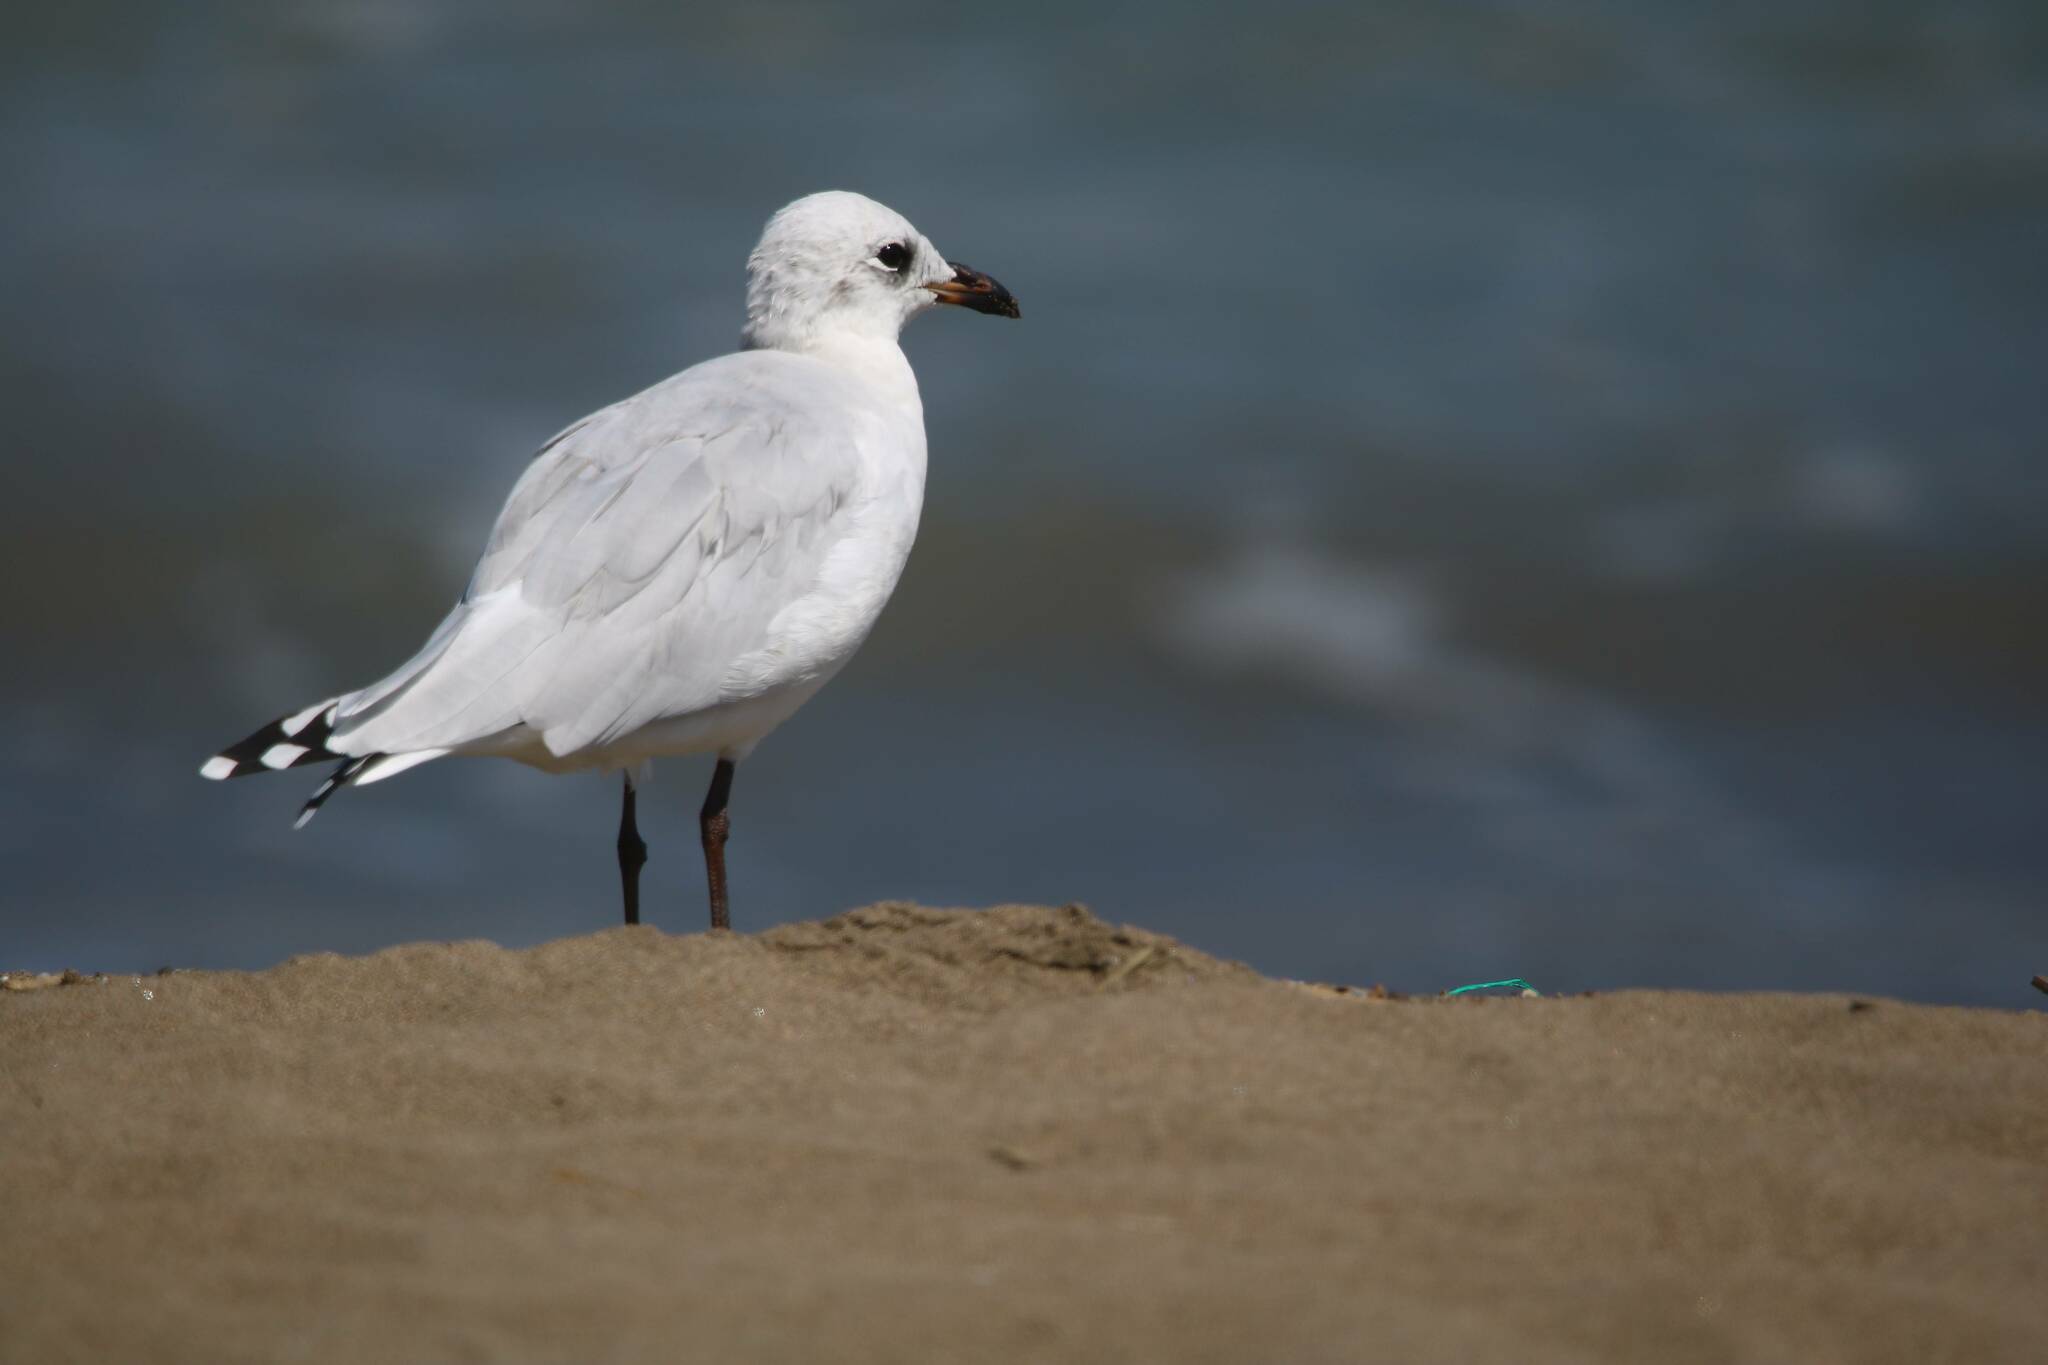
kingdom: Animalia
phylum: Chordata
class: Aves
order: Charadriiformes
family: Laridae
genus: Ichthyaetus
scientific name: Ichthyaetus melanocephalus
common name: Mediterranean gull
